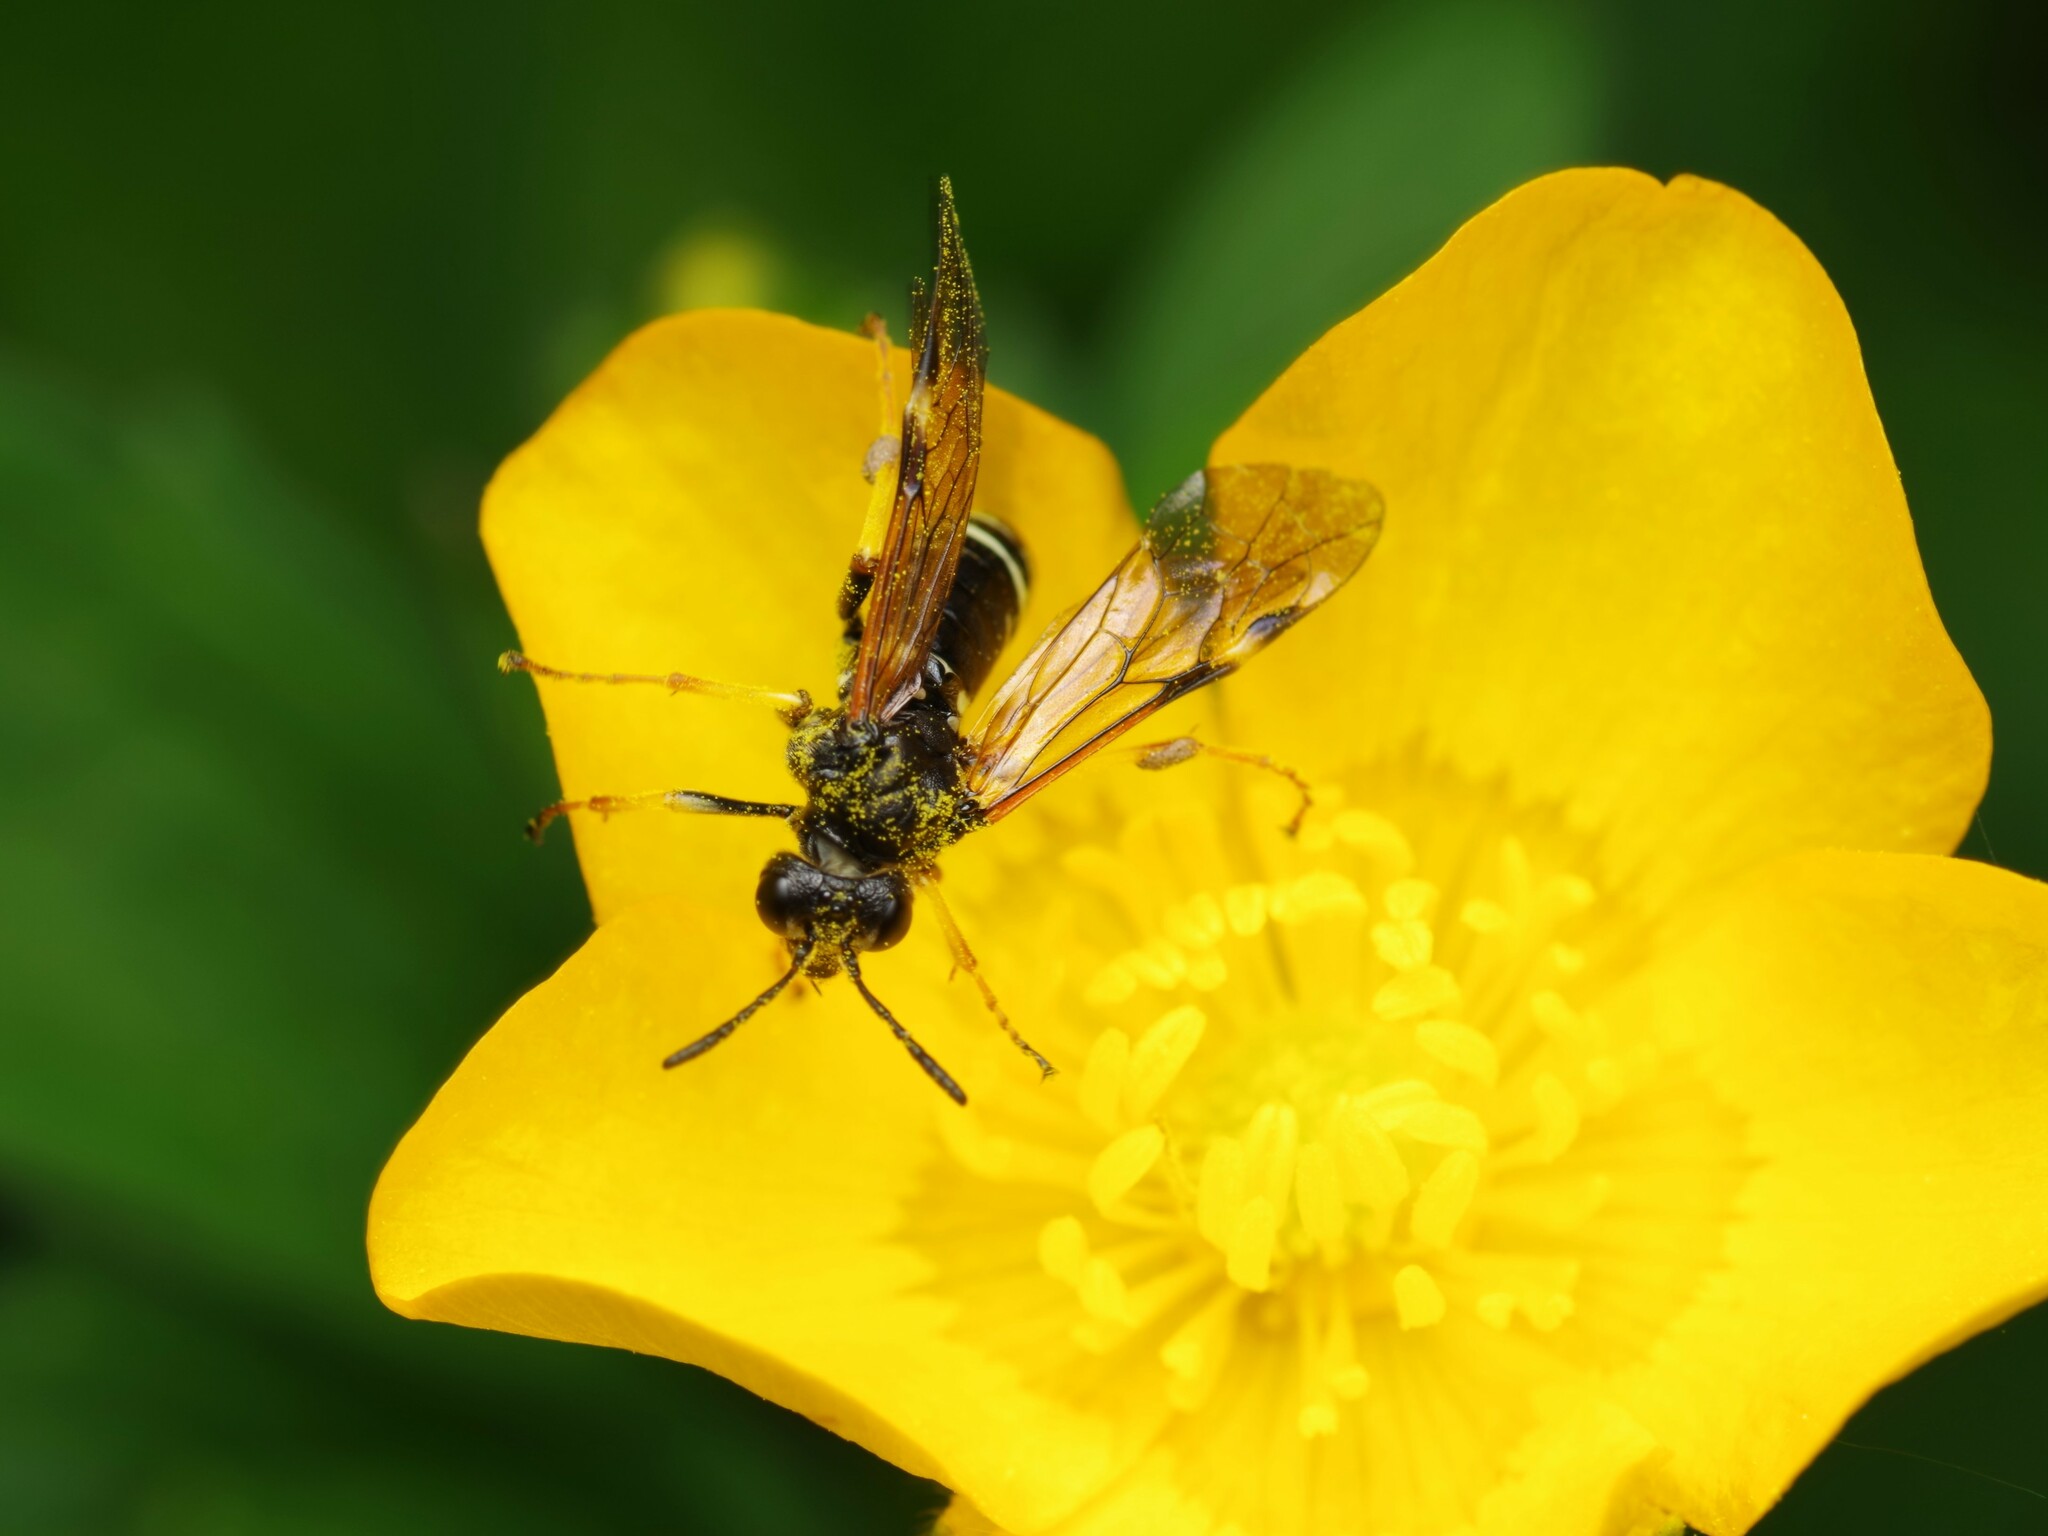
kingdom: Animalia
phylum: Arthropoda
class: Insecta
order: Hymenoptera
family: Tenthredinidae
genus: Tenthredo
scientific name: Tenthredo koehleri
